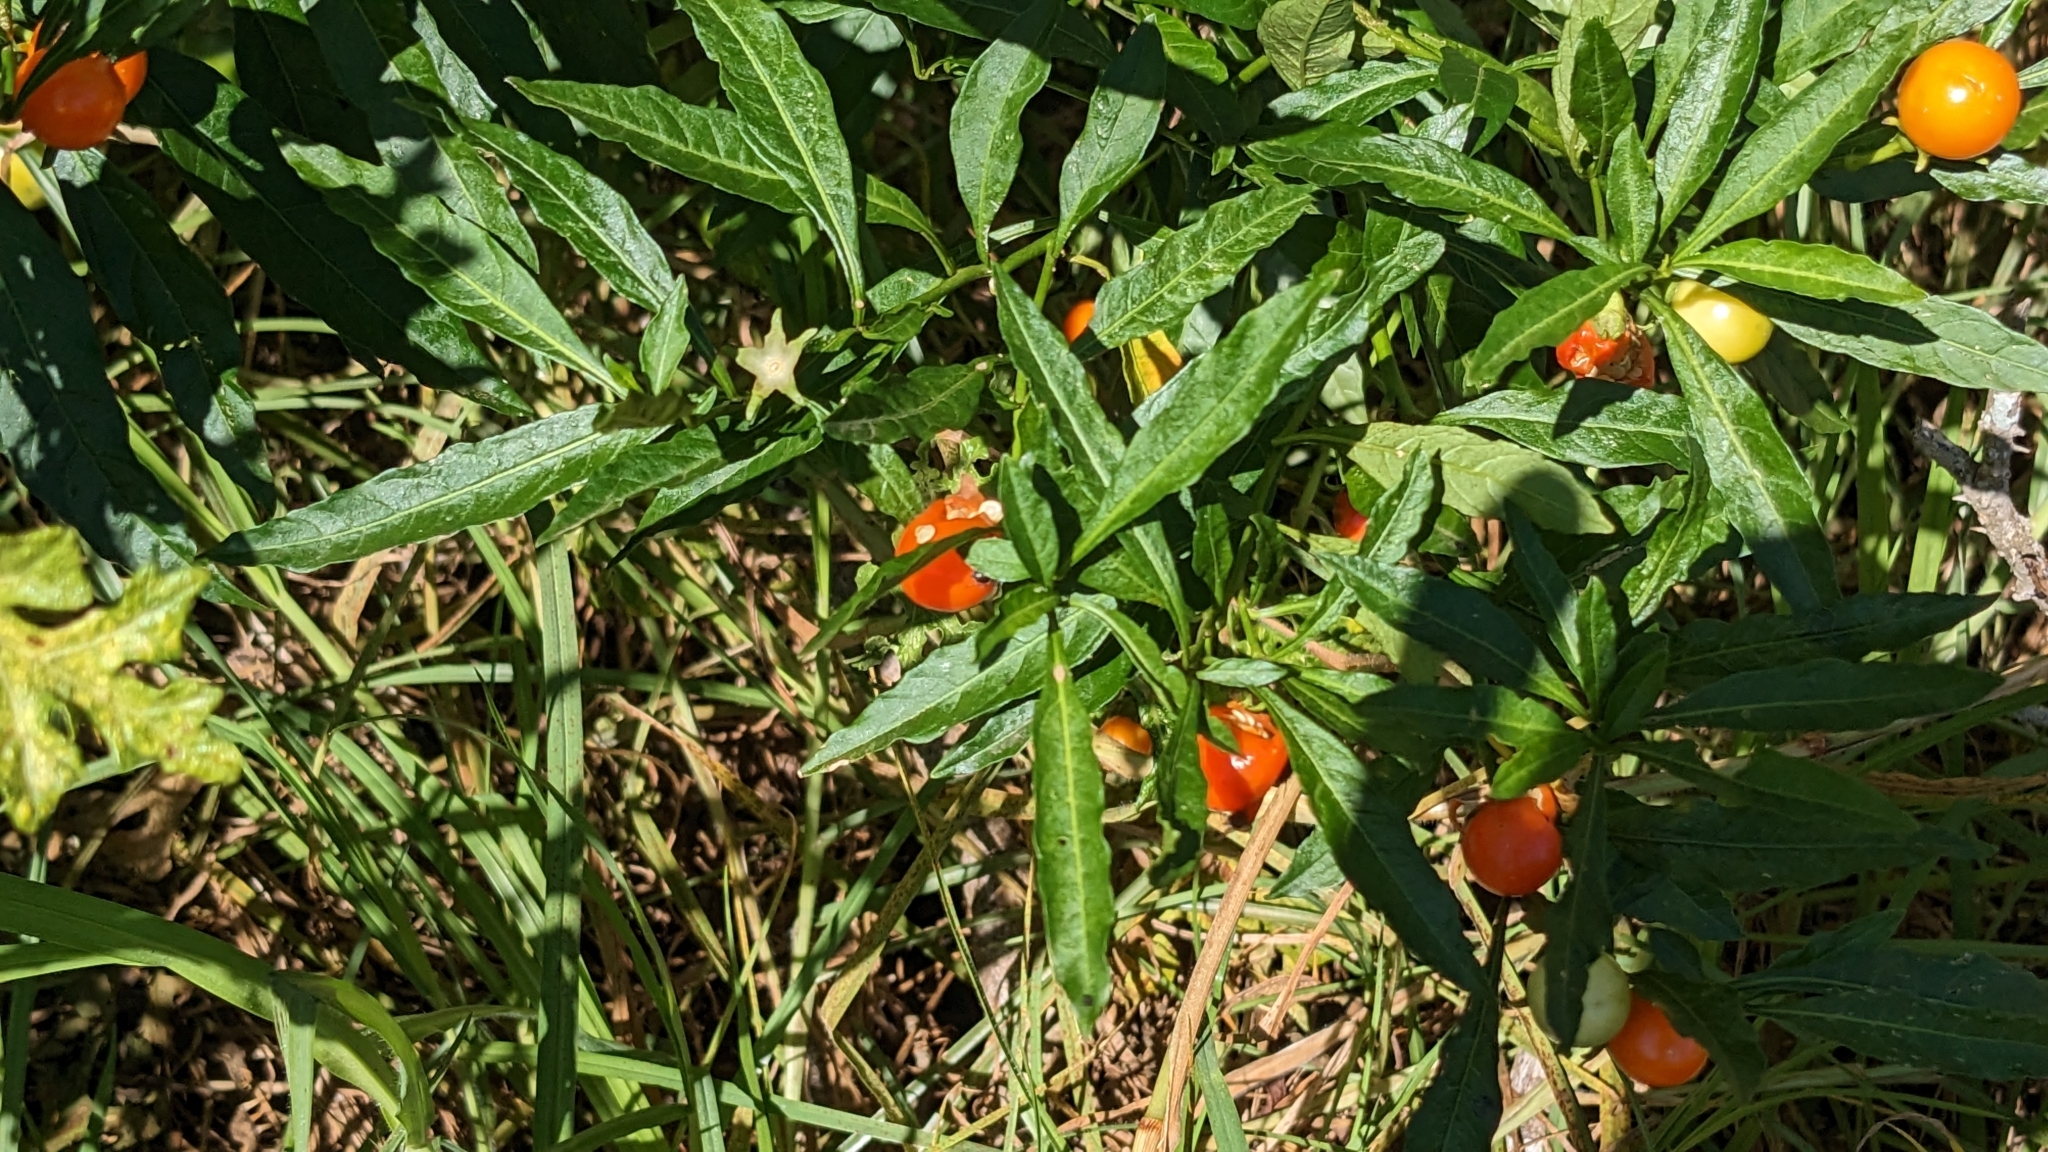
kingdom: Plantae
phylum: Tracheophyta
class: Magnoliopsida
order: Solanales
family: Solanaceae
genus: Solanum
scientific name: Solanum pseudocapsicum
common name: Jerusalem cherry
